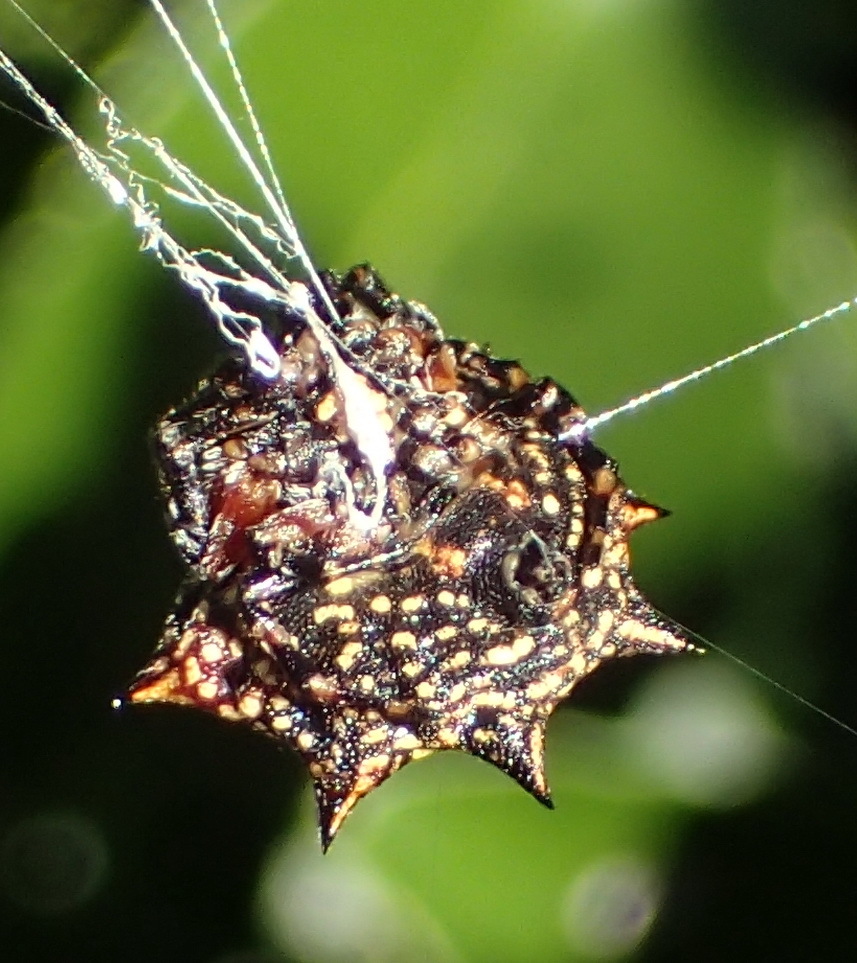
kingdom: Animalia
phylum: Arthropoda
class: Arachnida
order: Araneae
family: Araneidae
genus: Isoxya
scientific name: Isoxya cicatricosa
